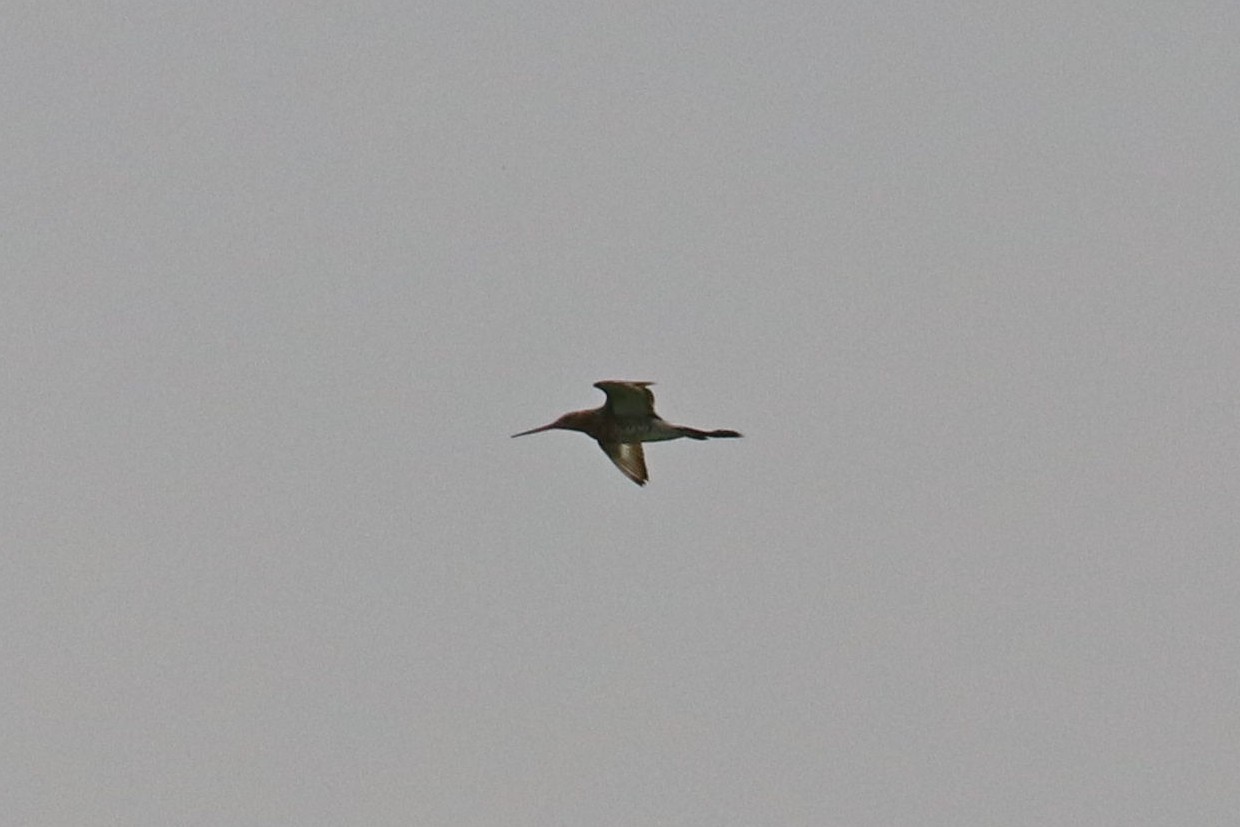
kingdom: Animalia
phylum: Chordata
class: Aves
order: Charadriiformes
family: Scolopacidae
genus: Limosa
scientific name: Limosa limosa
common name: Black-tailed godwit
